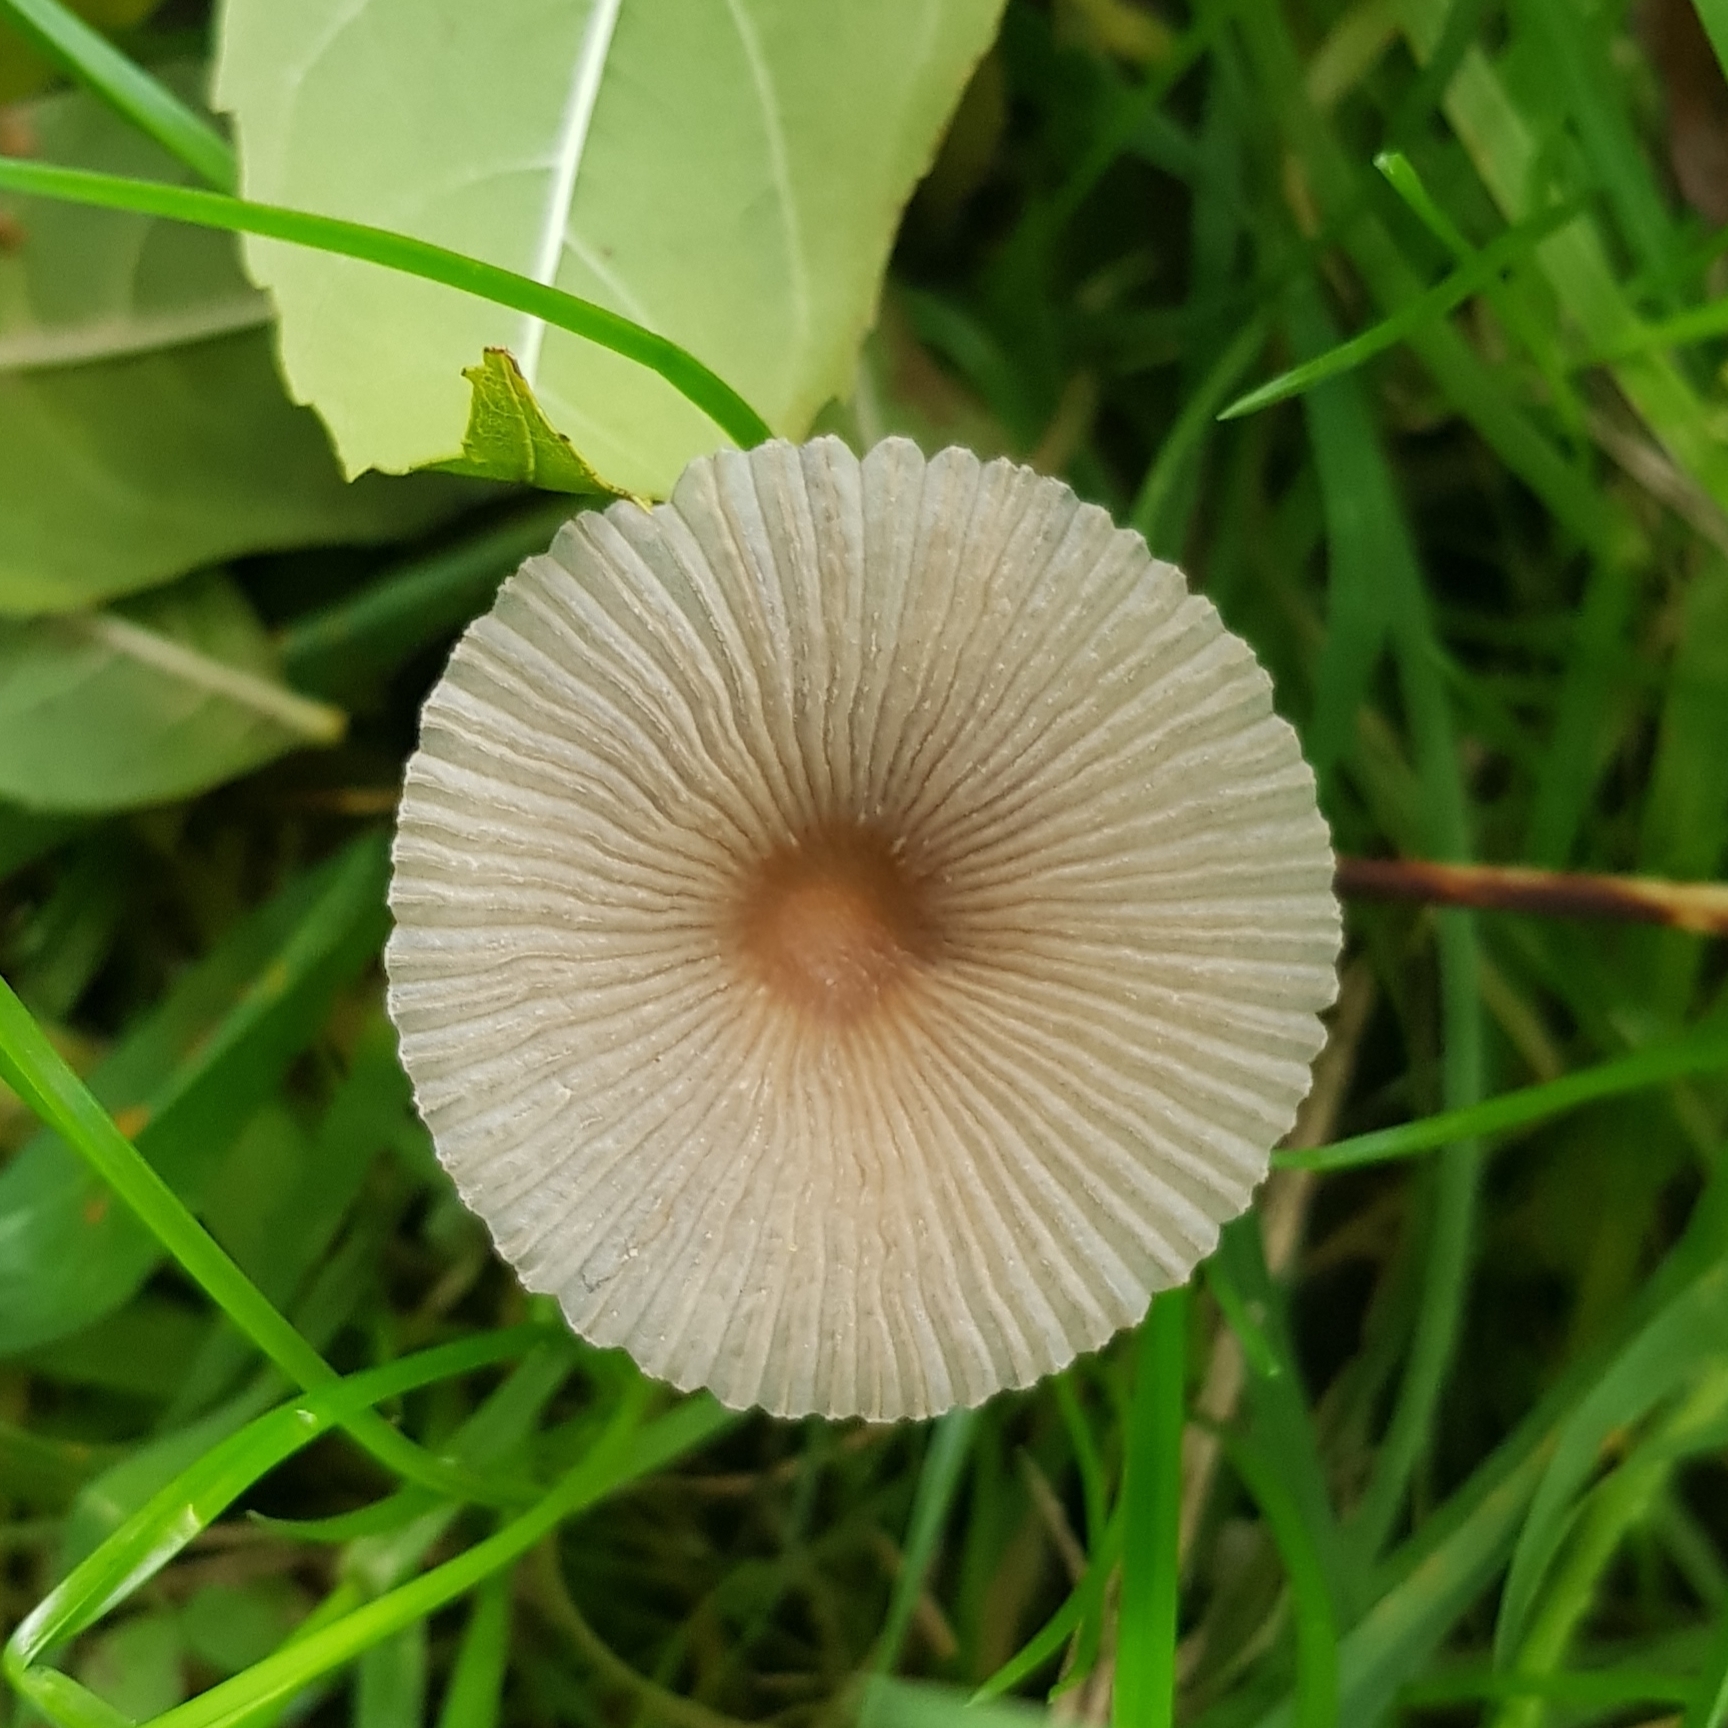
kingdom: Fungi
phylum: Basidiomycota
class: Agaricomycetes
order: Agaricales
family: Psathyrellaceae
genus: Parasola
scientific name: Parasola
